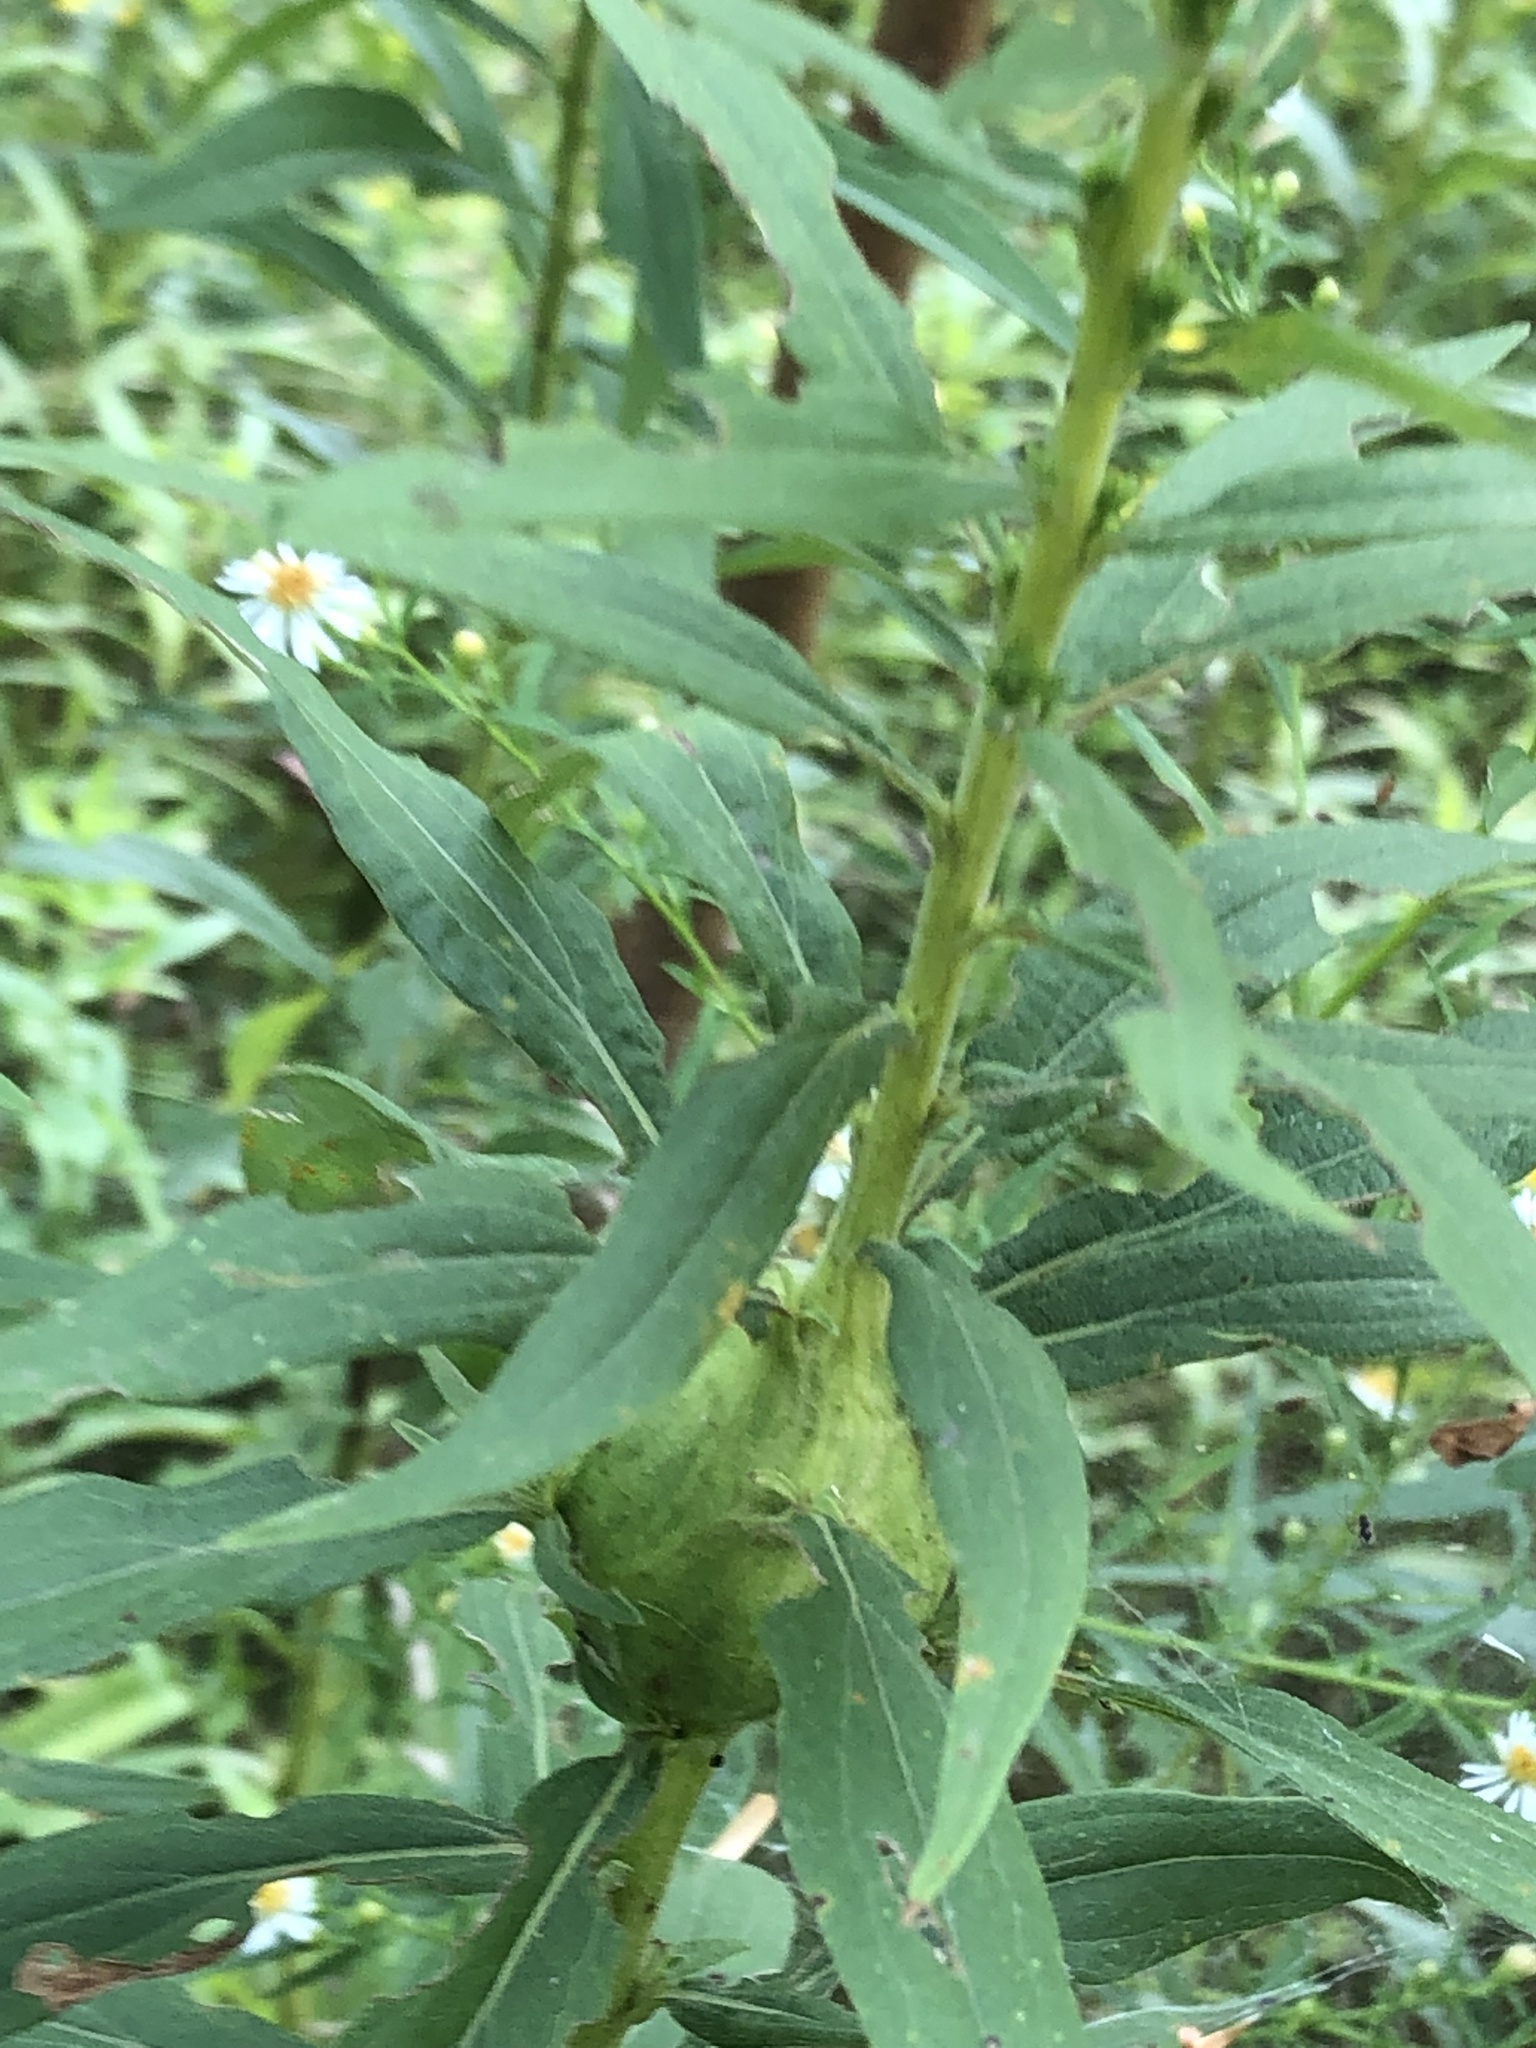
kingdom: Animalia
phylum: Arthropoda
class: Insecta
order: Diptera
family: Tephritidae
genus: Eurosta
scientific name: Eurosta solidaginis
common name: Goldenrod gall fly
